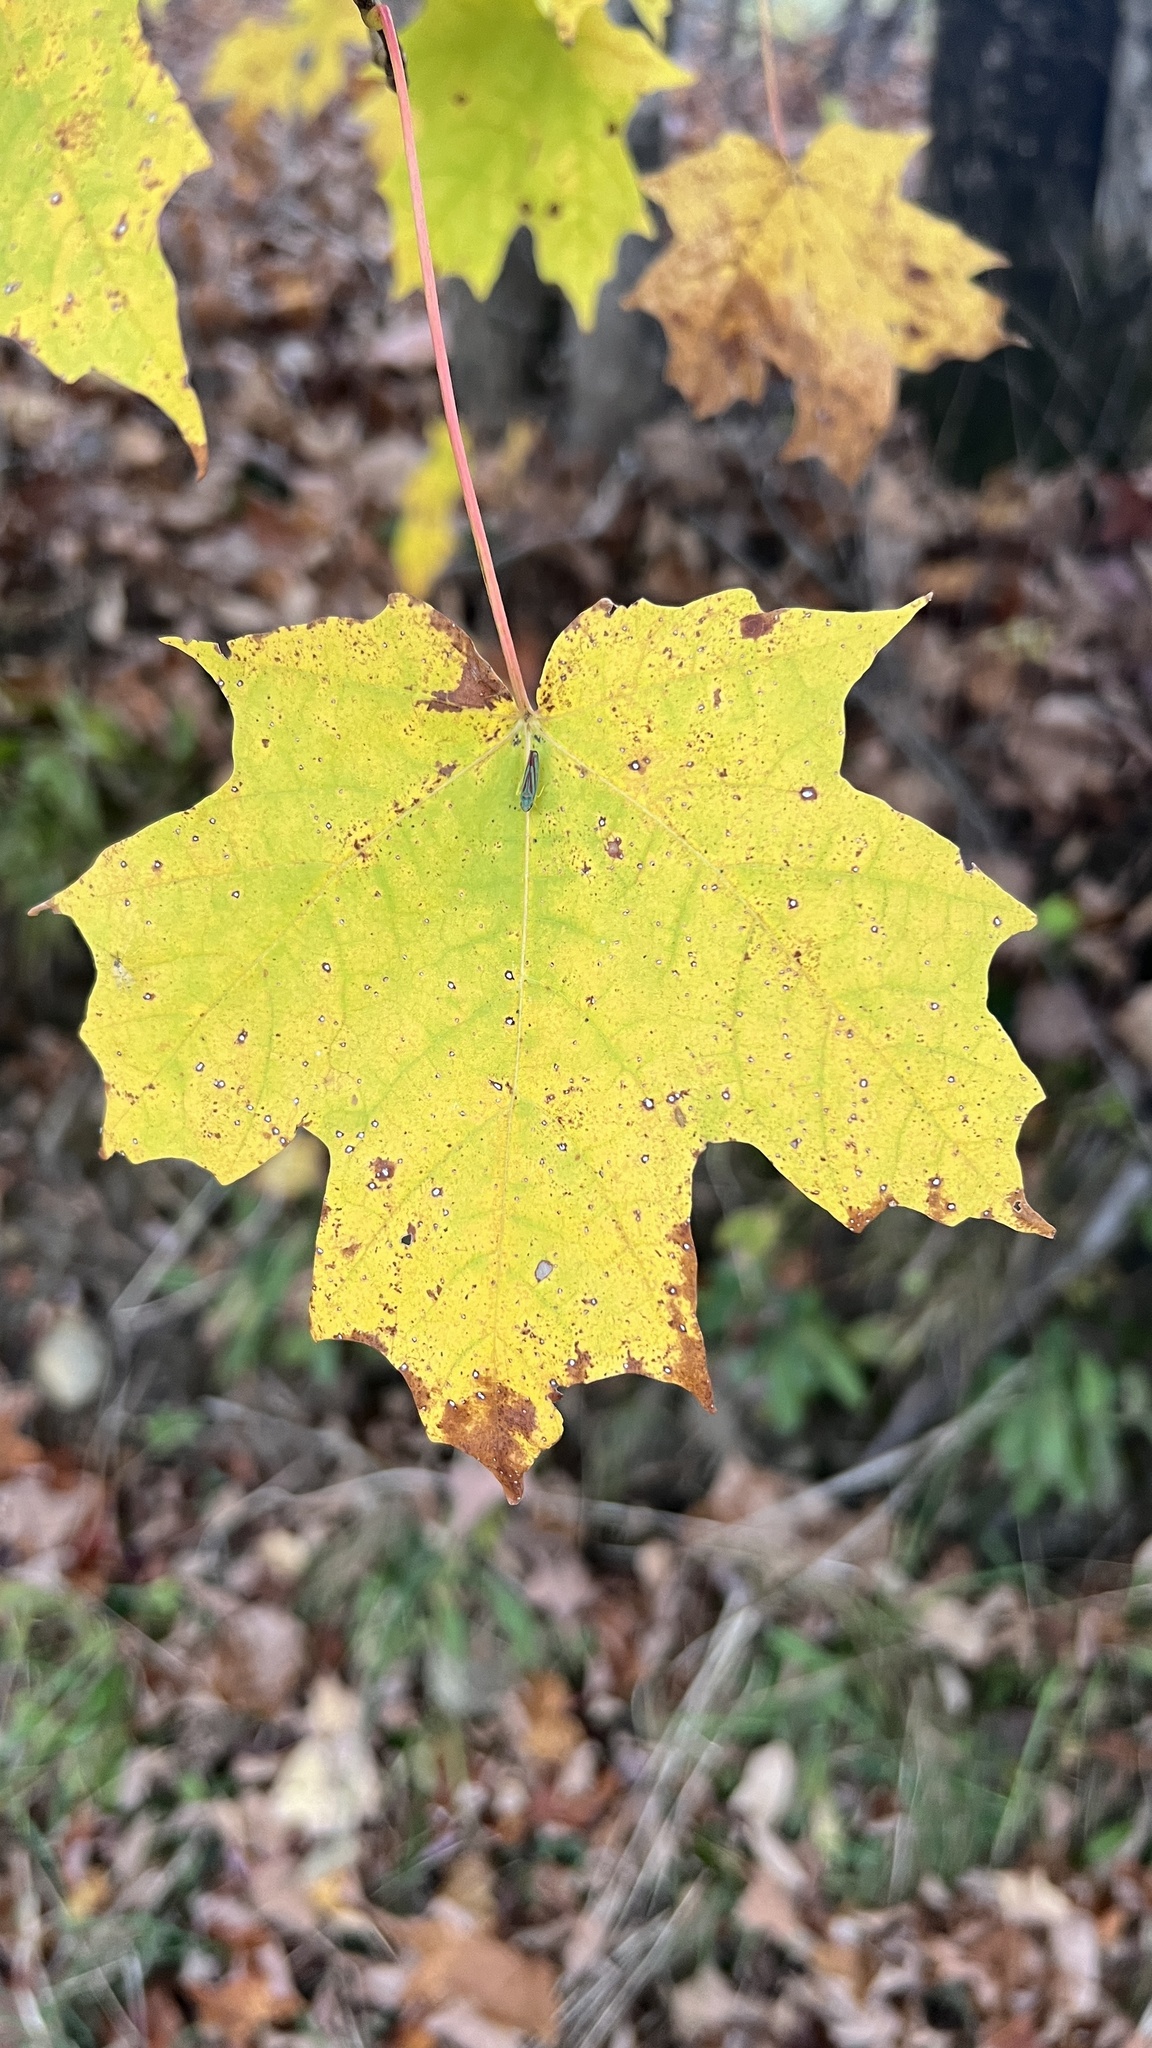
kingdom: Plantae
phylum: Tracheophyta
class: Magnoliopsida
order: Sapindales
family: Sapindaceae
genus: Acer
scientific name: Acer saccharum
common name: Sugar maple
